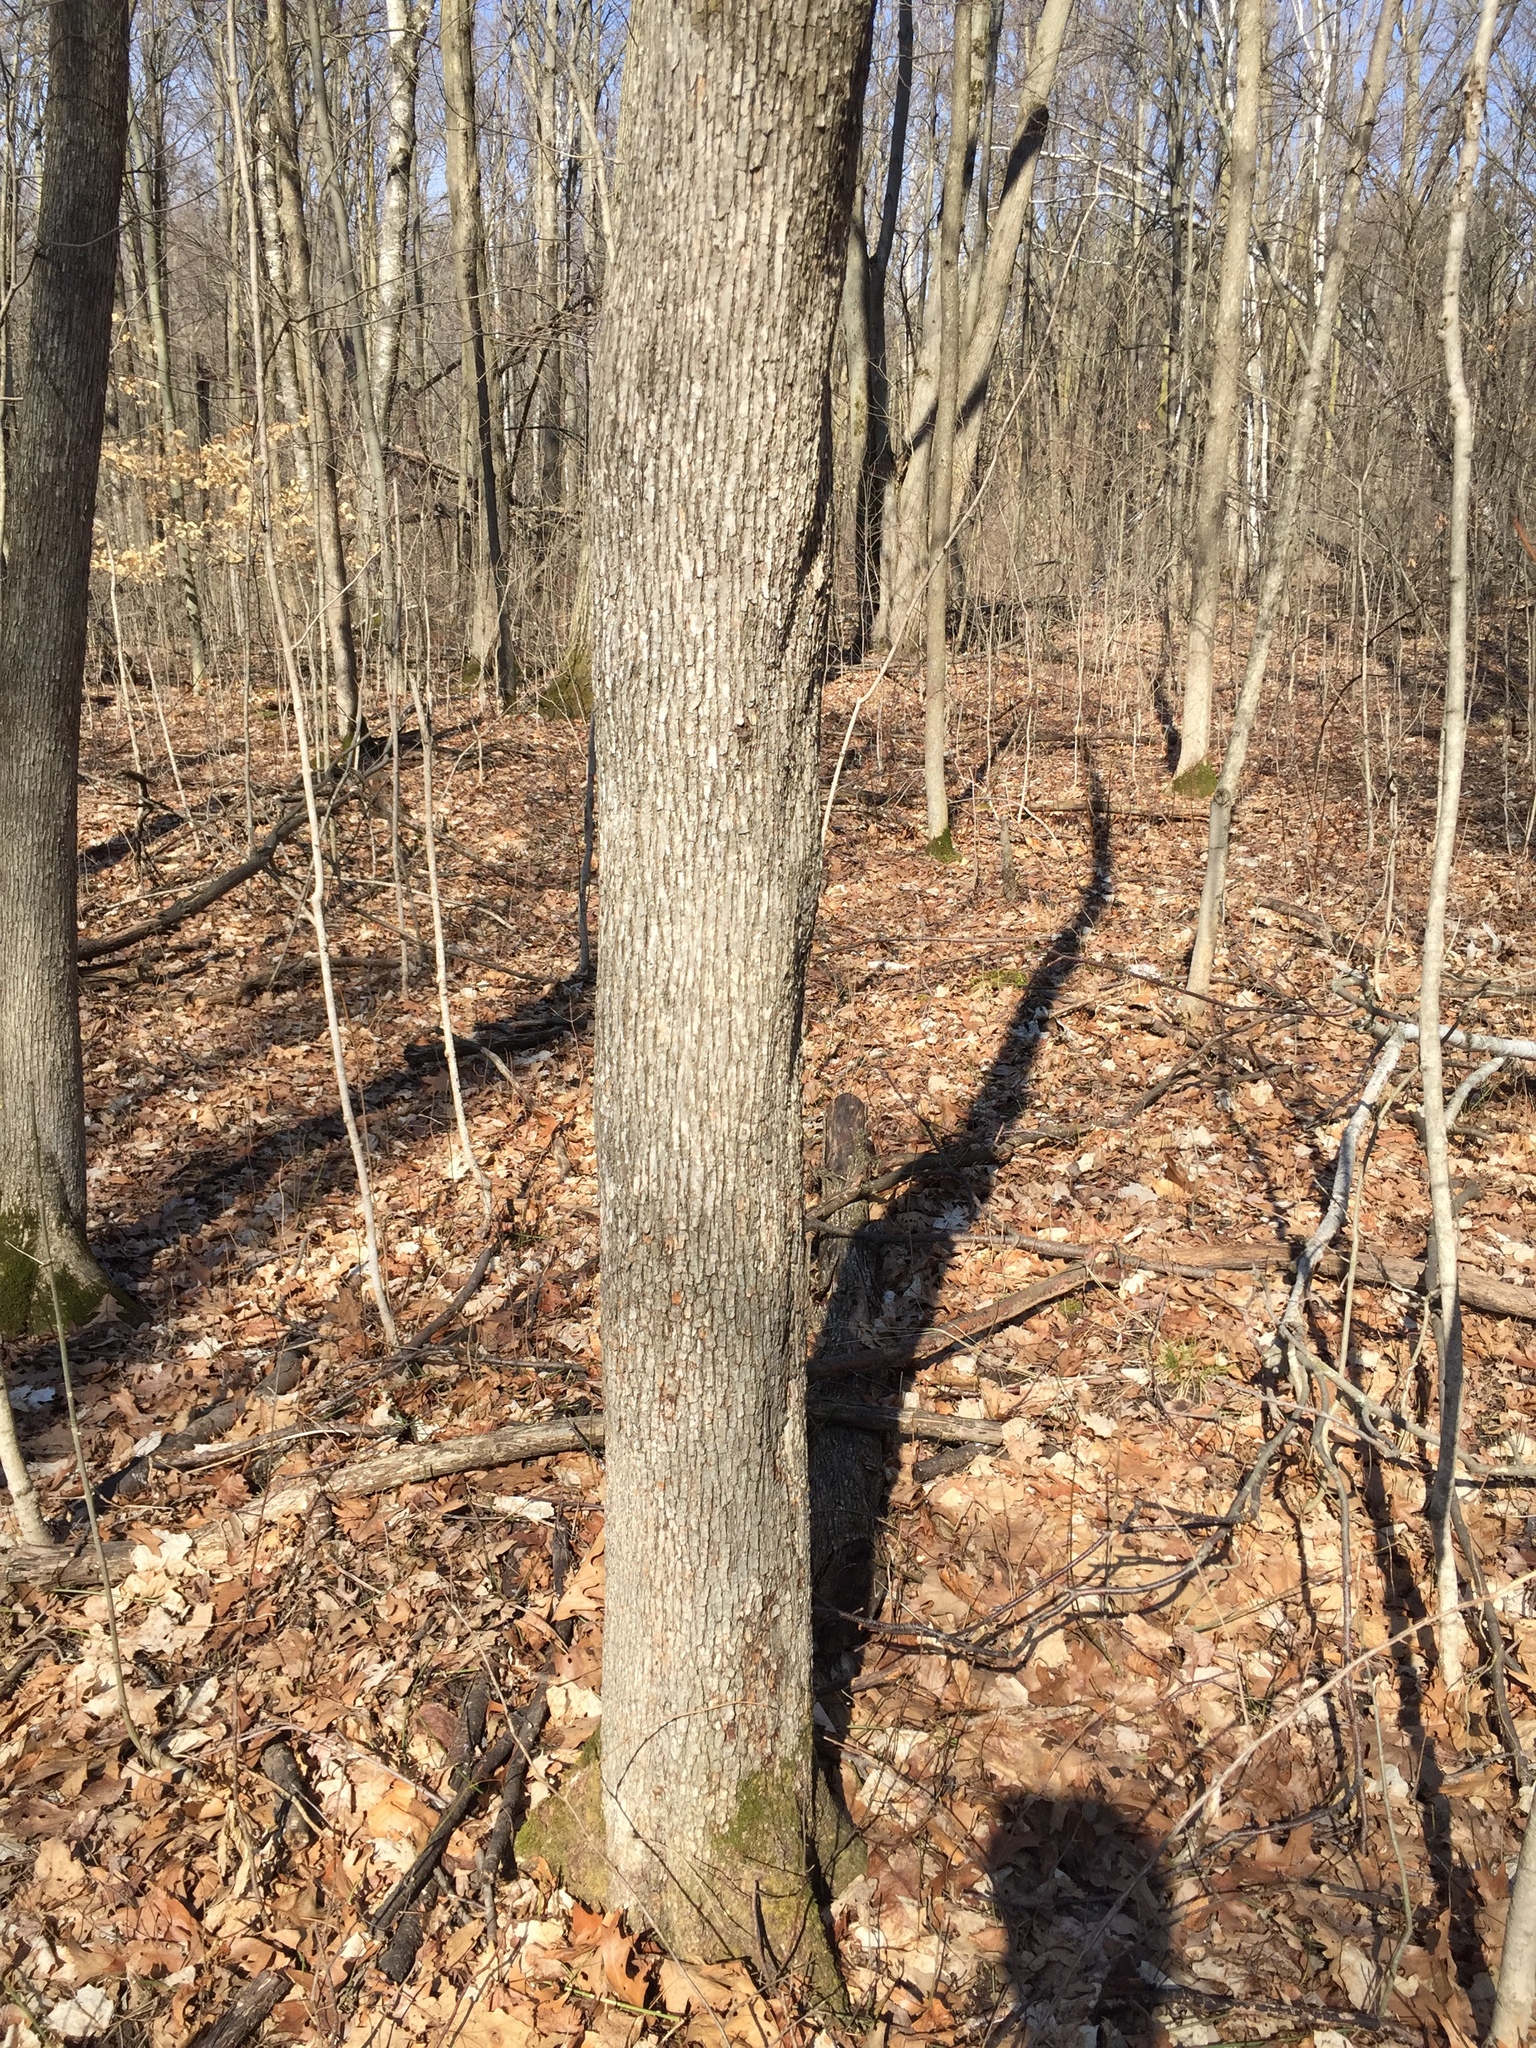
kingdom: Plantae
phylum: Tracheophyta
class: Magnoliopsida
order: Fagales
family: Betulaceae
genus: Ostrya
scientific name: Ostrya virginiana
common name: Ironwood
